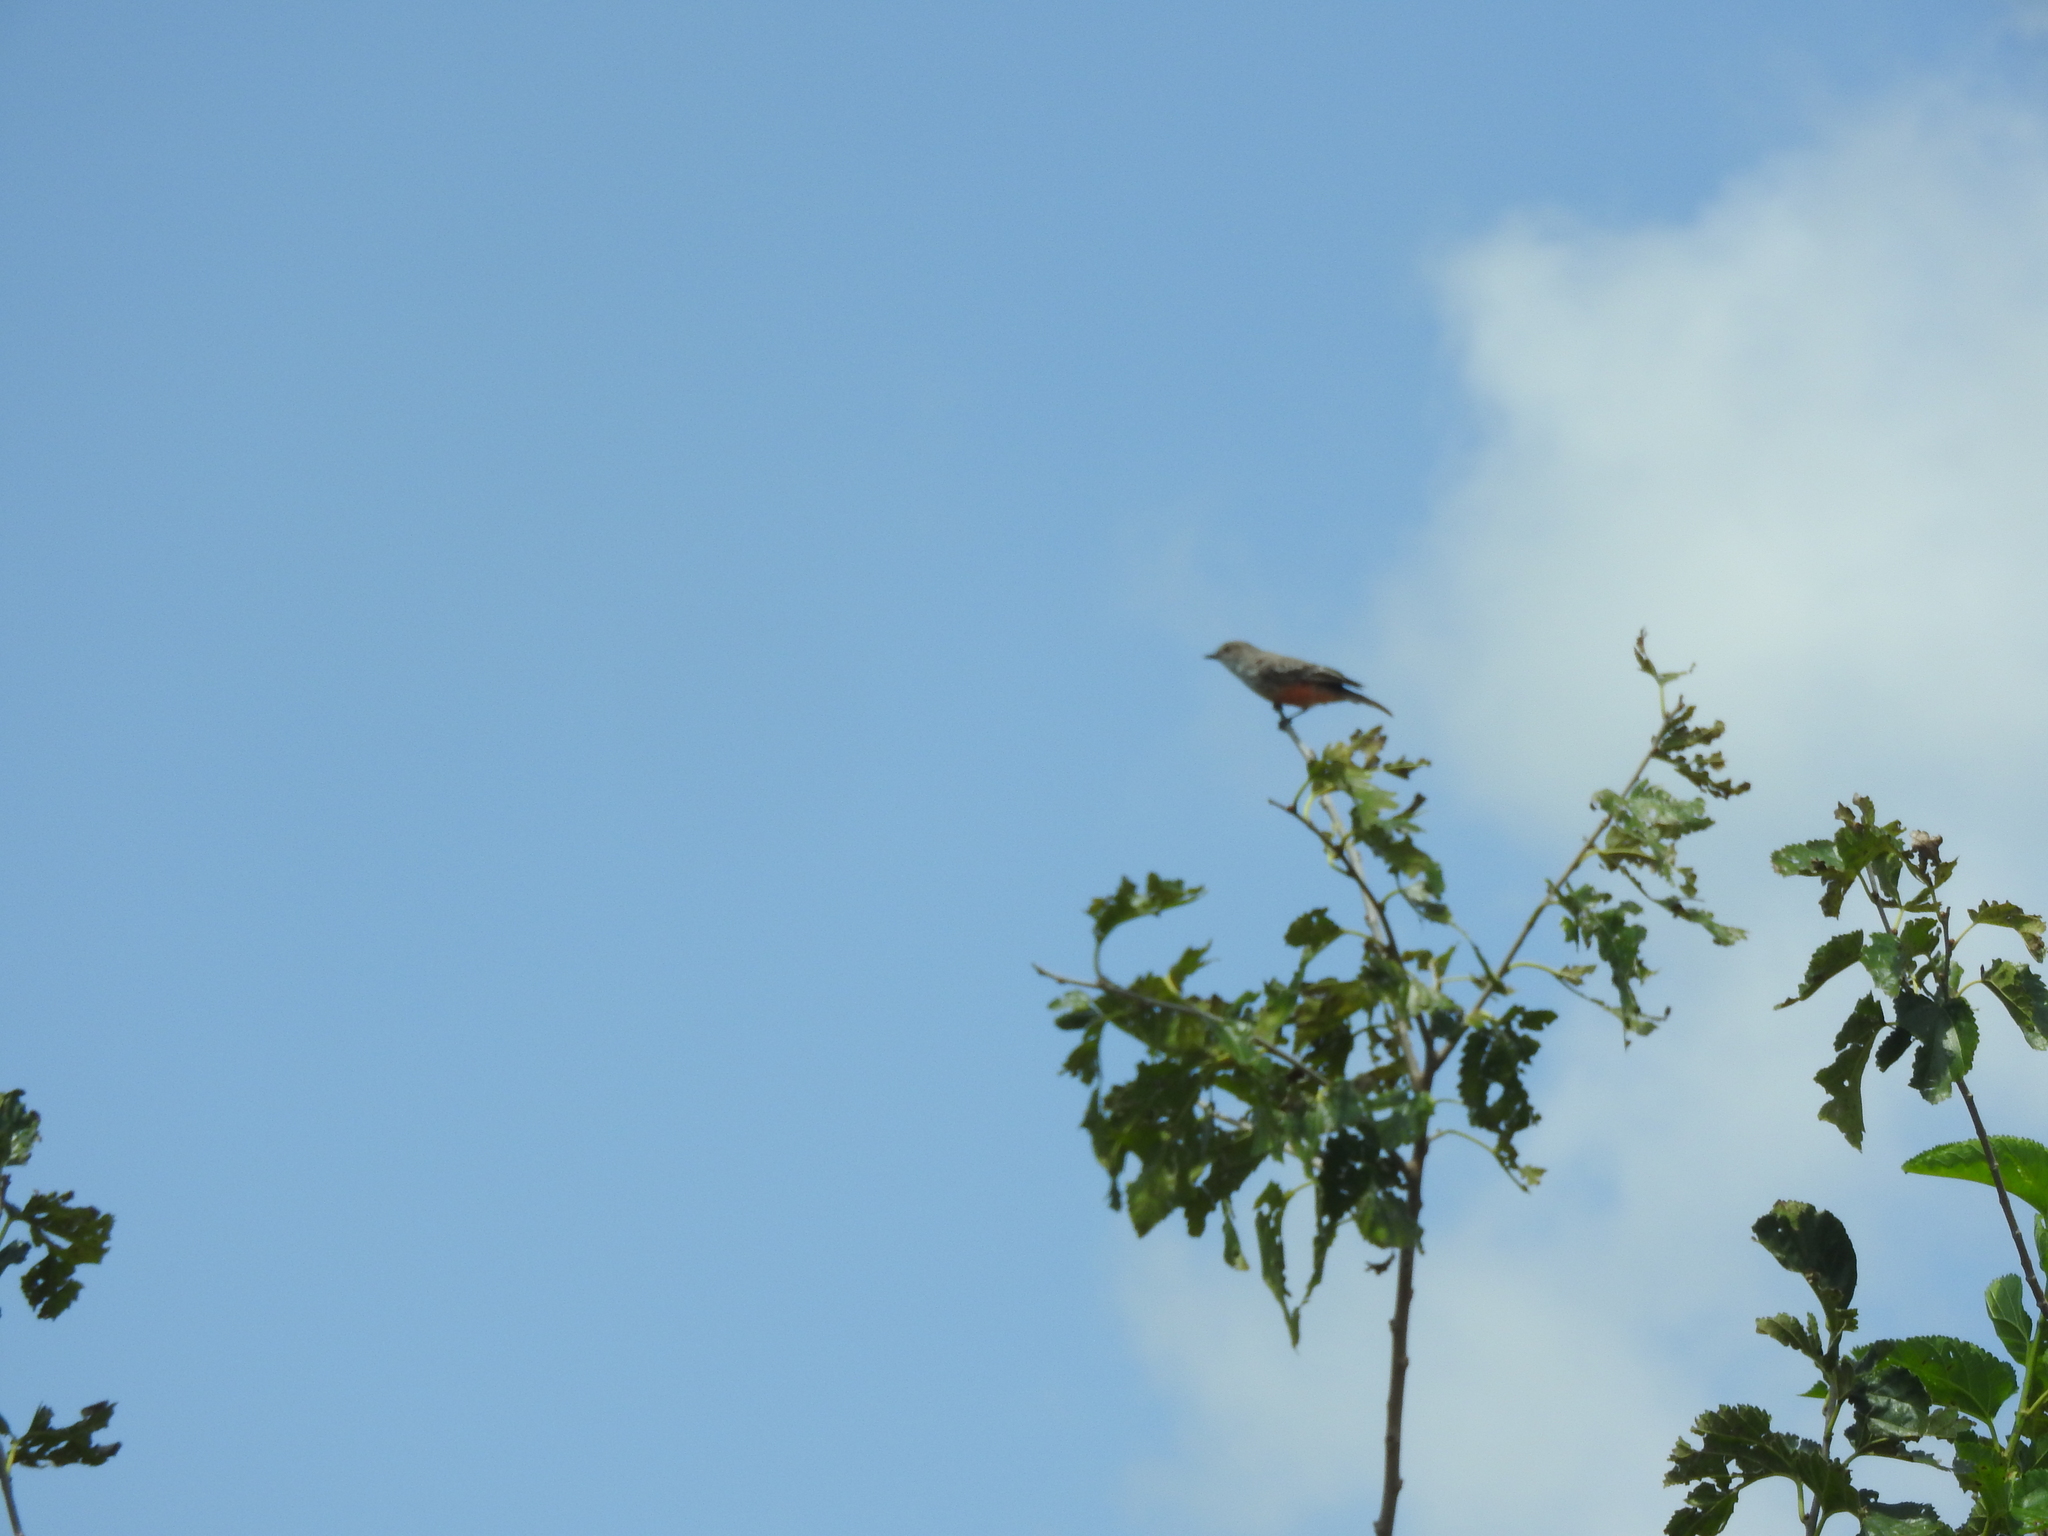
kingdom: Animalia
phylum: Chordata
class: Aves
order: Passeriformes
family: Tyrannidae
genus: Pyrocephalus
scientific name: Pyrocephalus rubinus
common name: Vermilion flycatcher
